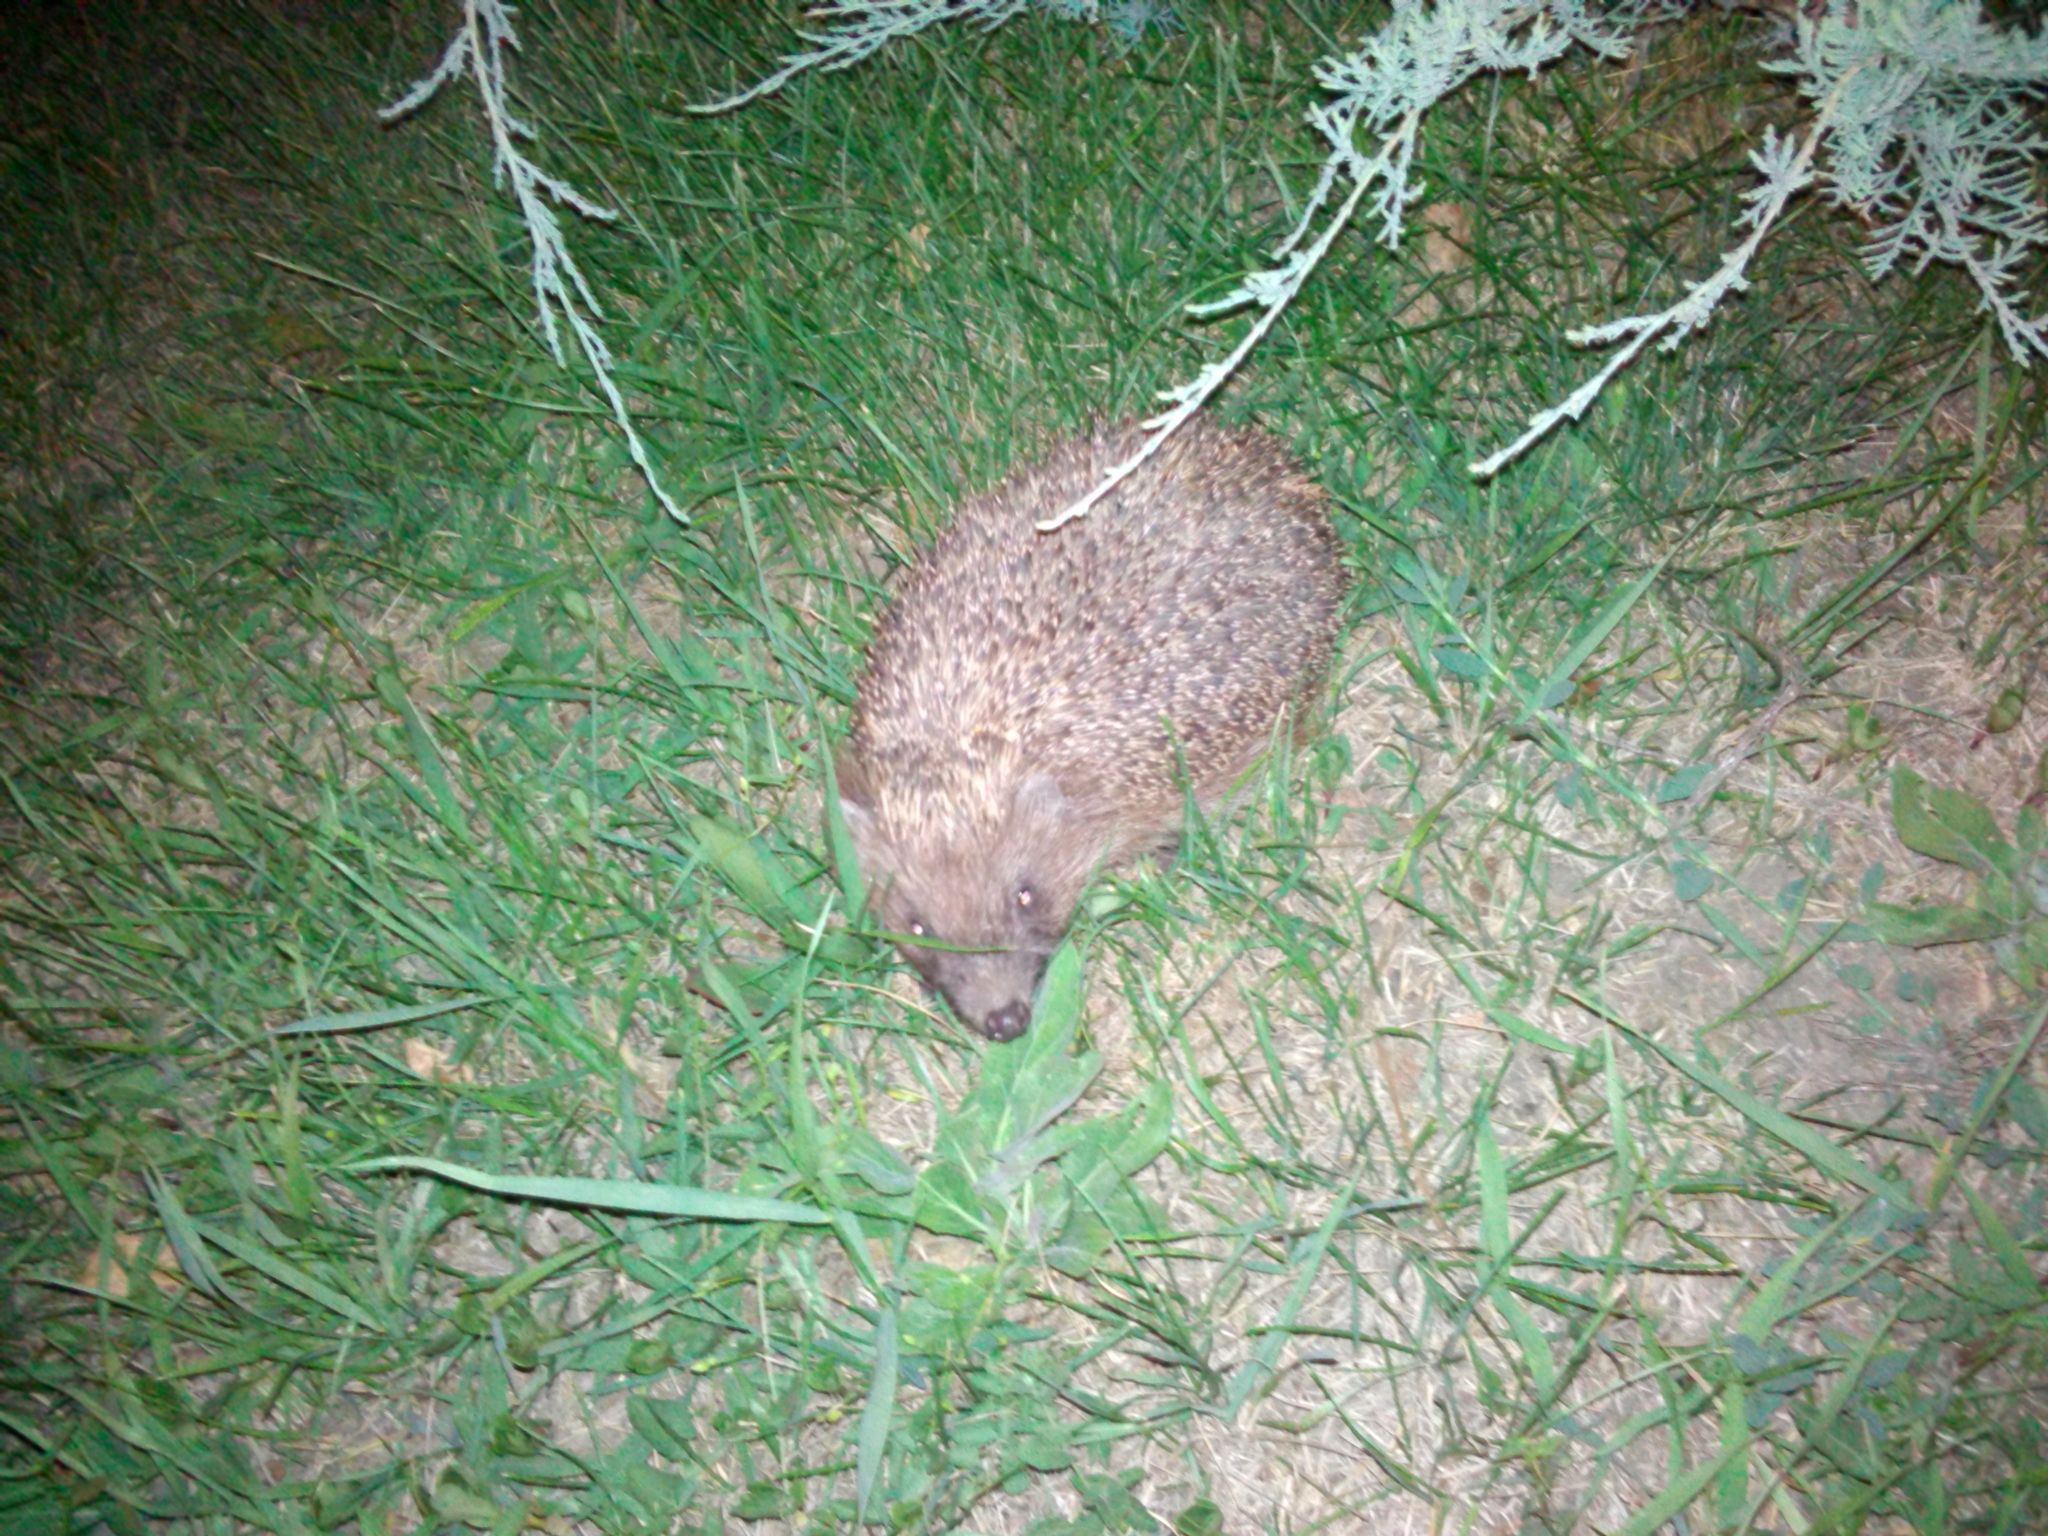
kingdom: Animalia
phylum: Chordata
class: Mammalia
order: Erinaceomorpha
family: Erinaceidae
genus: Erinaceus
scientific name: Erinaceus roumanicus
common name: Northern white-breasted hedgehog
